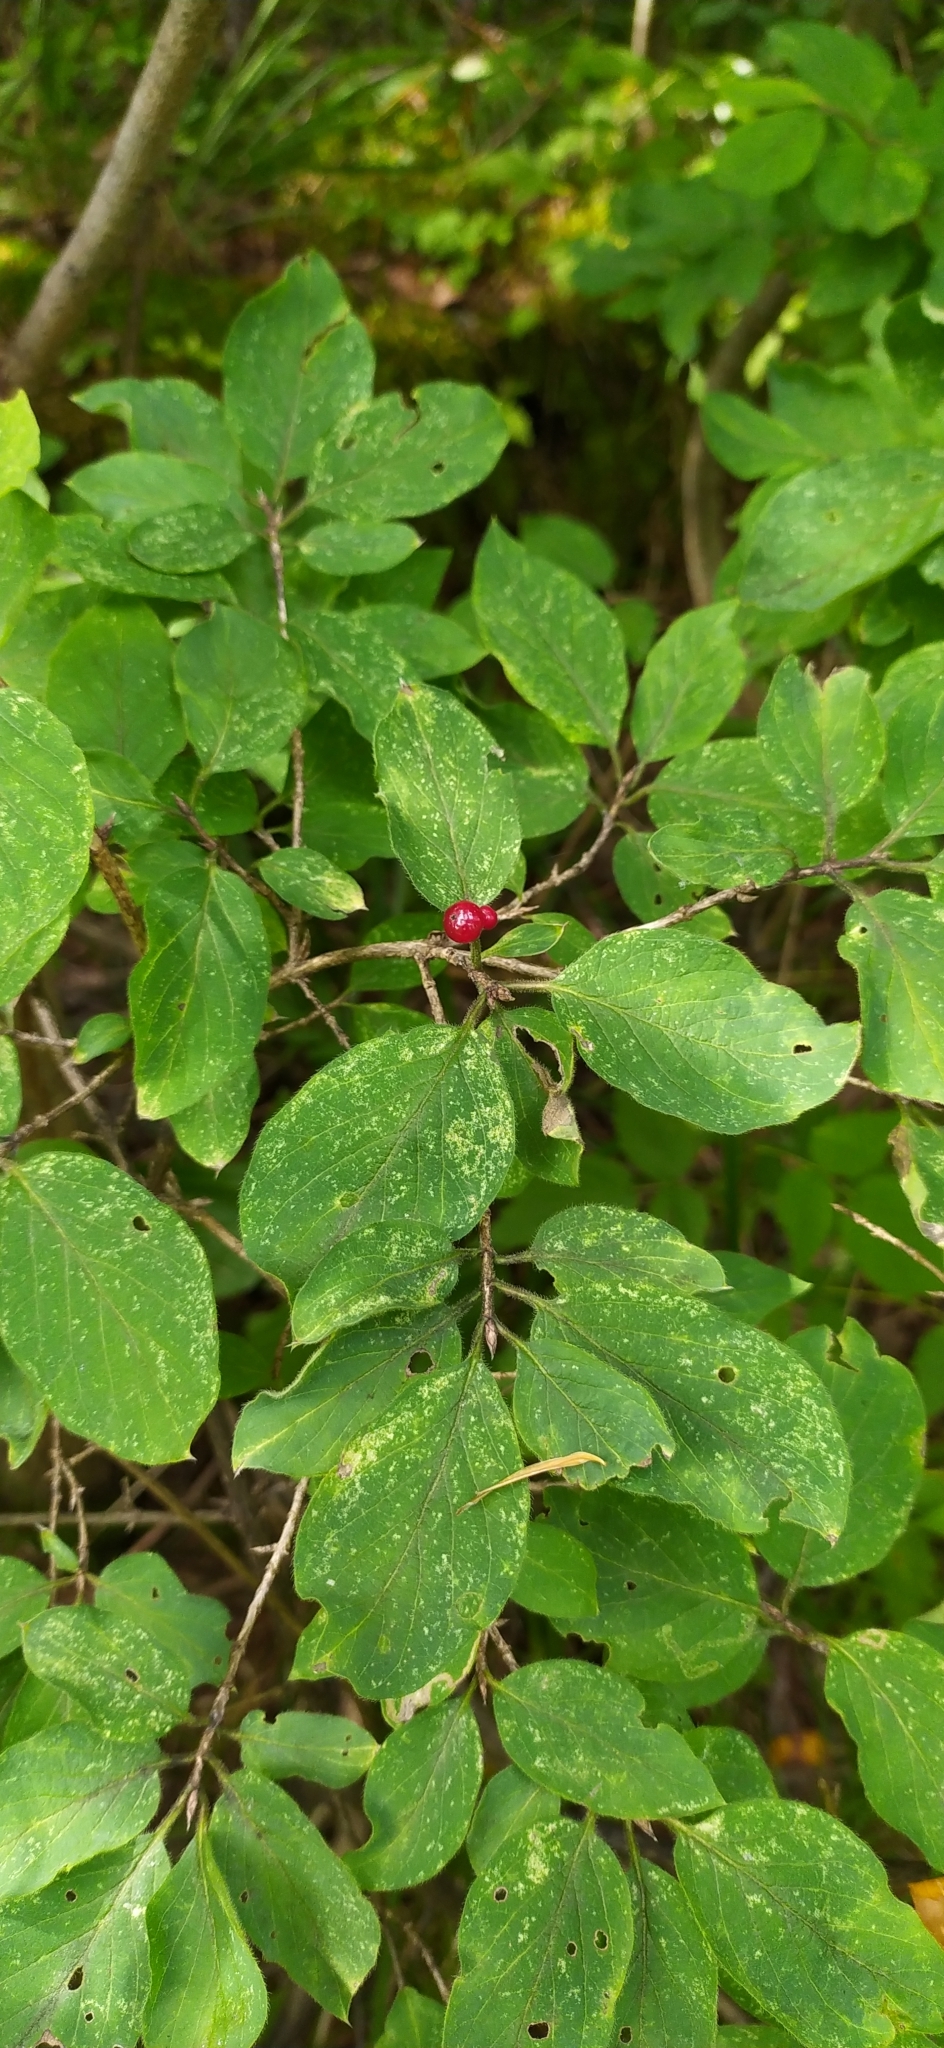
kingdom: Plantae
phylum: Tracheophyta
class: Magnoliopsida
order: Dipsacales
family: Caprifoliaceae
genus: Lonicera
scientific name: Lonicera xylosteum
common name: Fly honeysuckle
